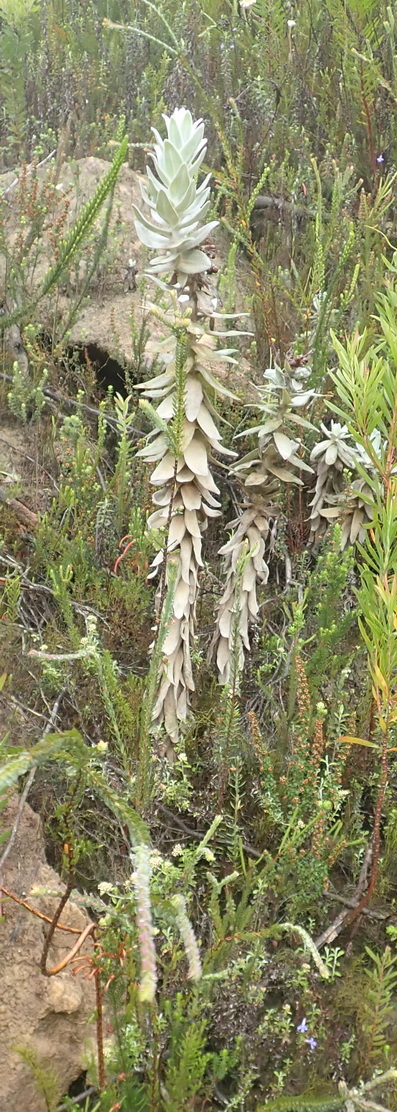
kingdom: Plantae
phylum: Tracheophyta
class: Magnoliopsida
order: Asterales
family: Asteraceae
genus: Syncarpha
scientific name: Syncarpha milleflora
